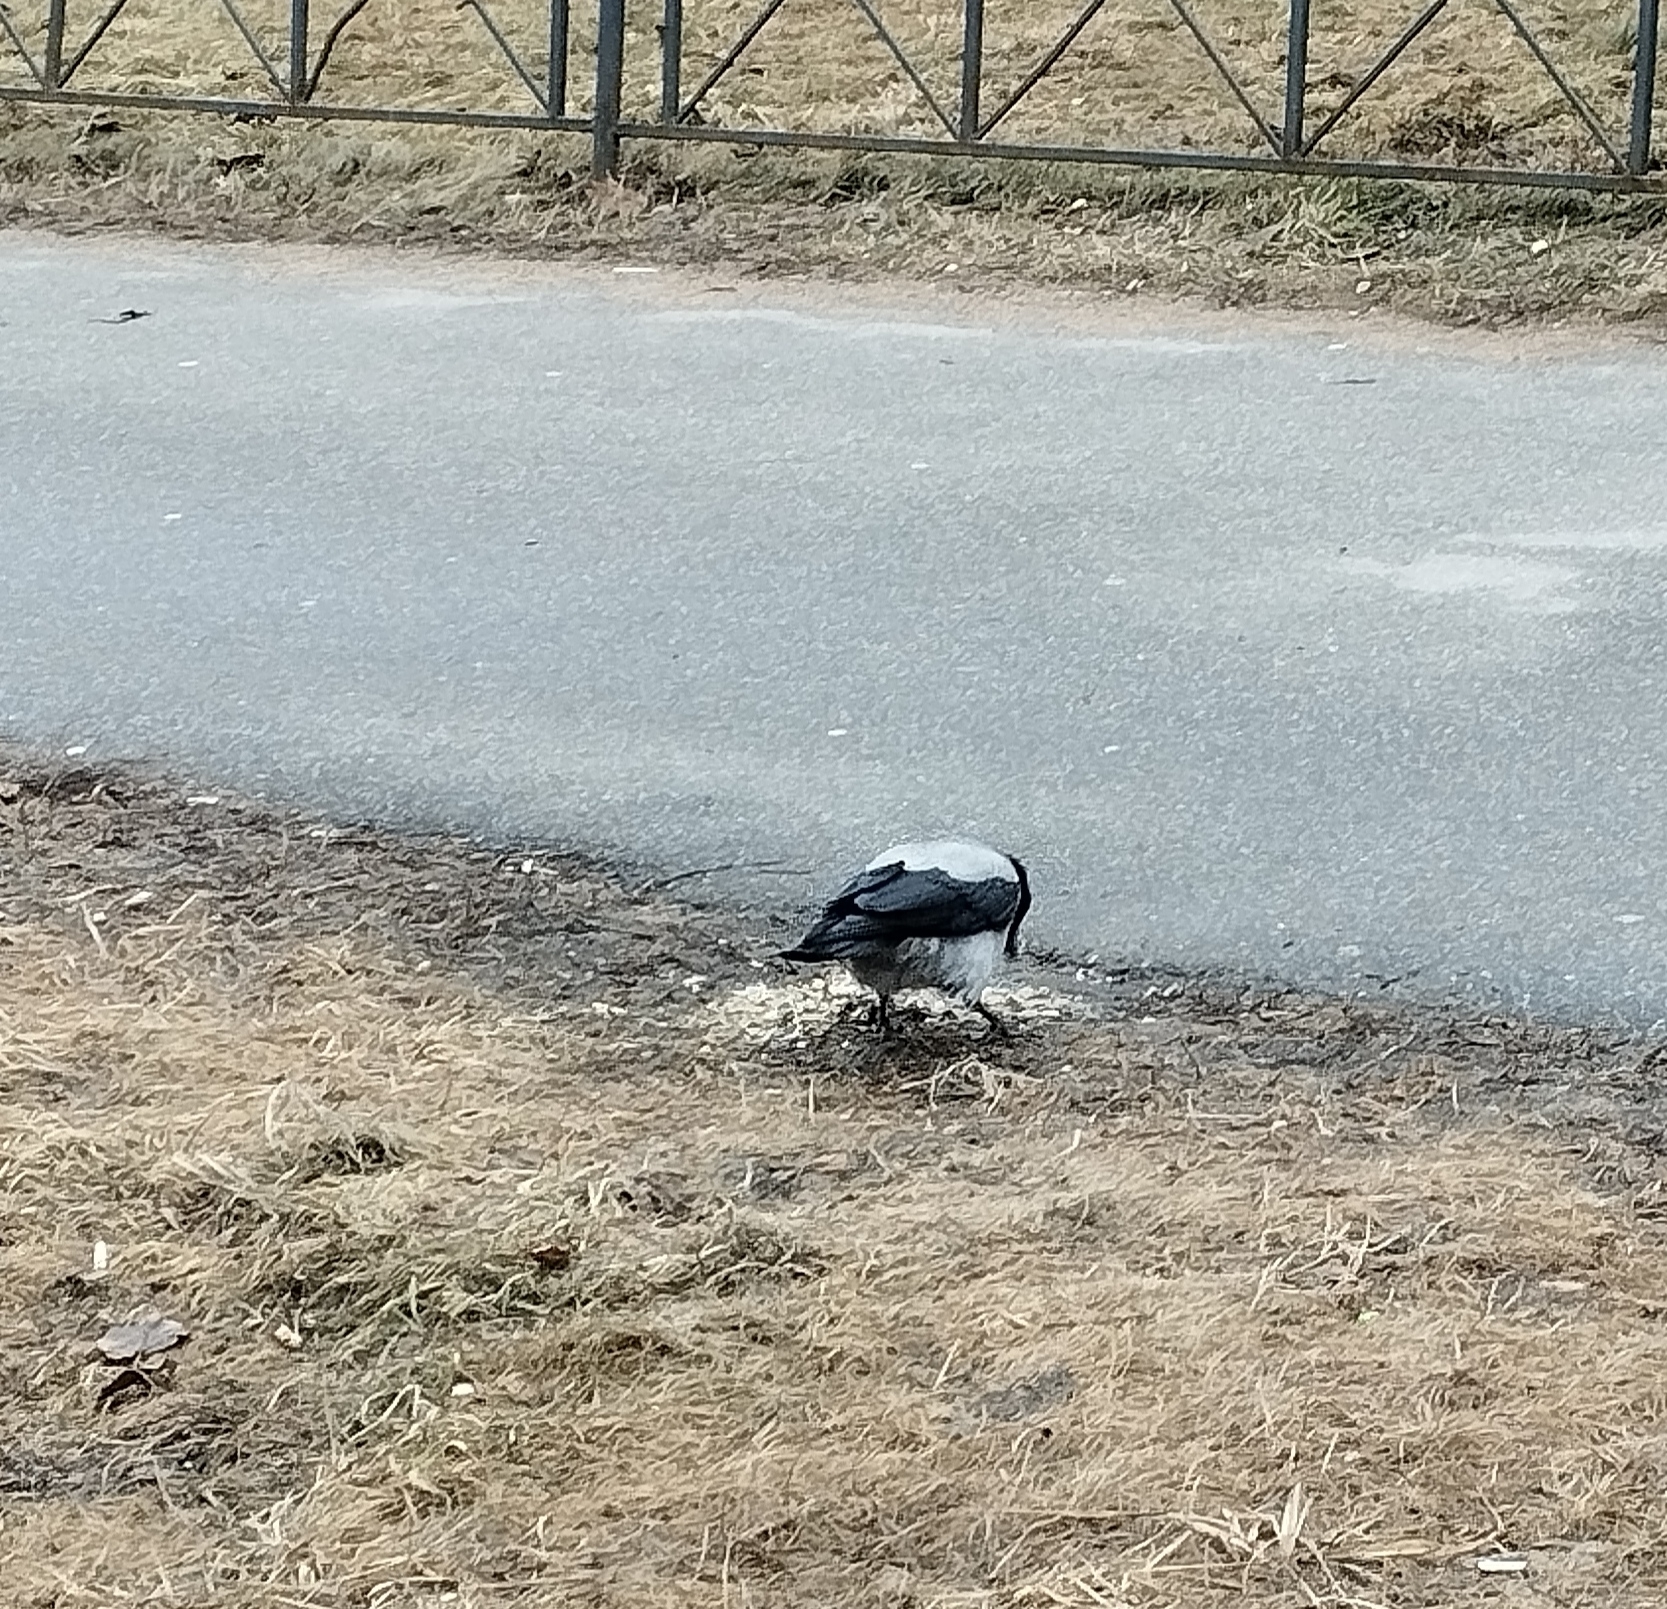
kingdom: Animalia
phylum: Chordata
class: Aves
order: Passeriformes
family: Corvidae
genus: Corvus
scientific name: Corvus cornix
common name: Hooded crow
